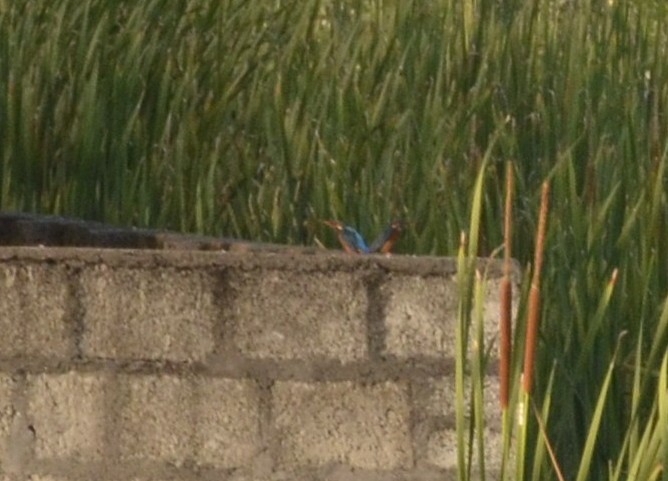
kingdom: Animalia
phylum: Chordata
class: Aves
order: Coraciiformes
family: Alcedinidae
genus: Alcedo
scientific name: Alcedo atthis
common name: Common kingfisher
